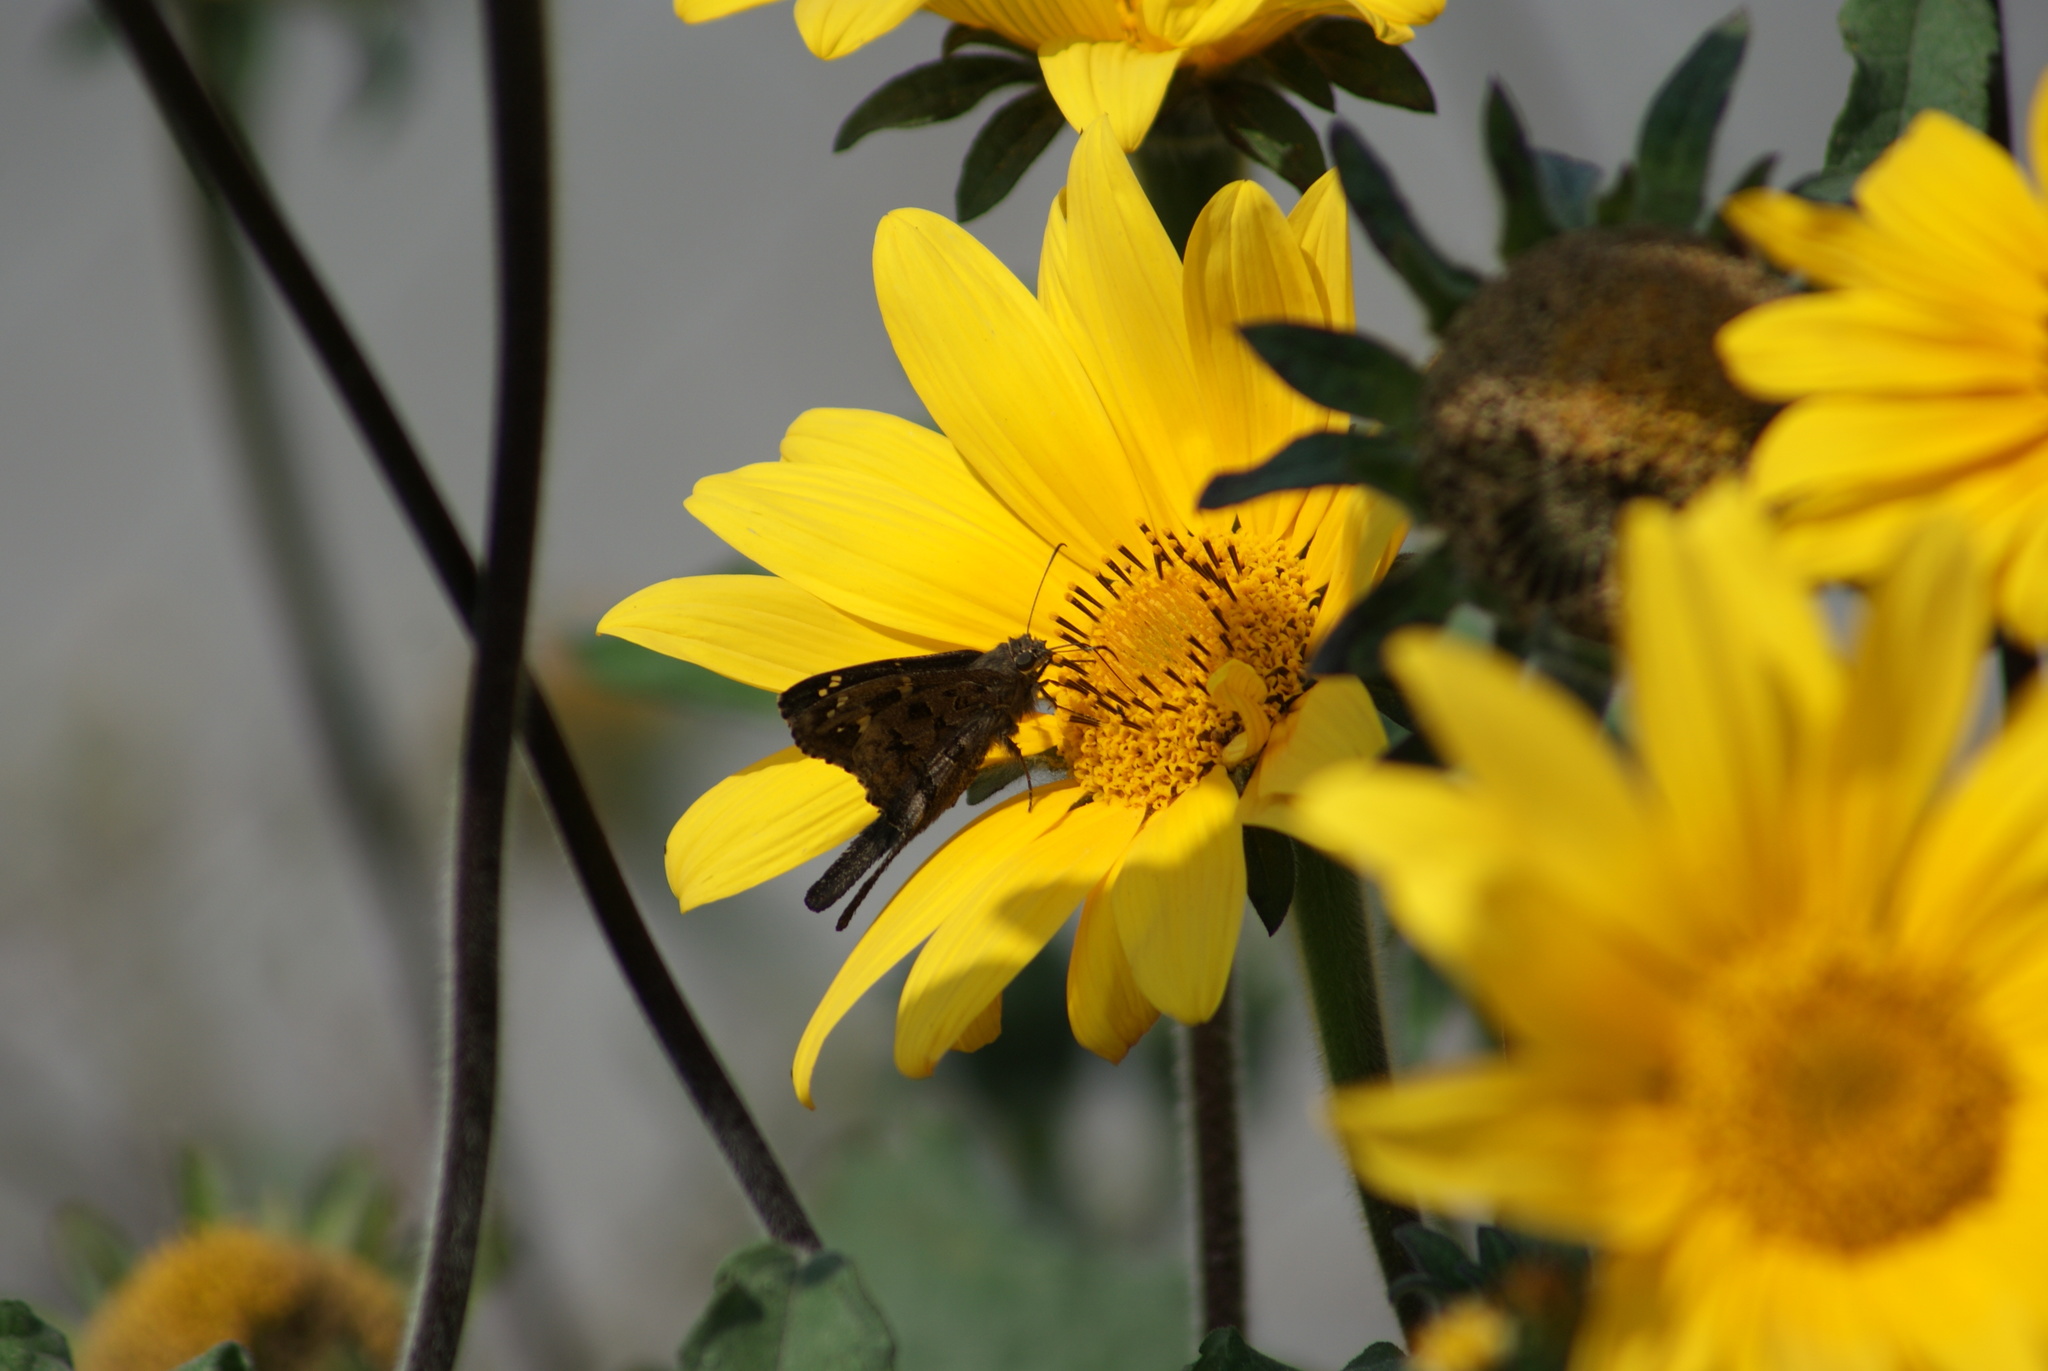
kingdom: Animalia
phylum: Arthropoda
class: Insecta
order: Lepidoptera
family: Hesperiidae
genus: Thorybes
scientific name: Thorybes
